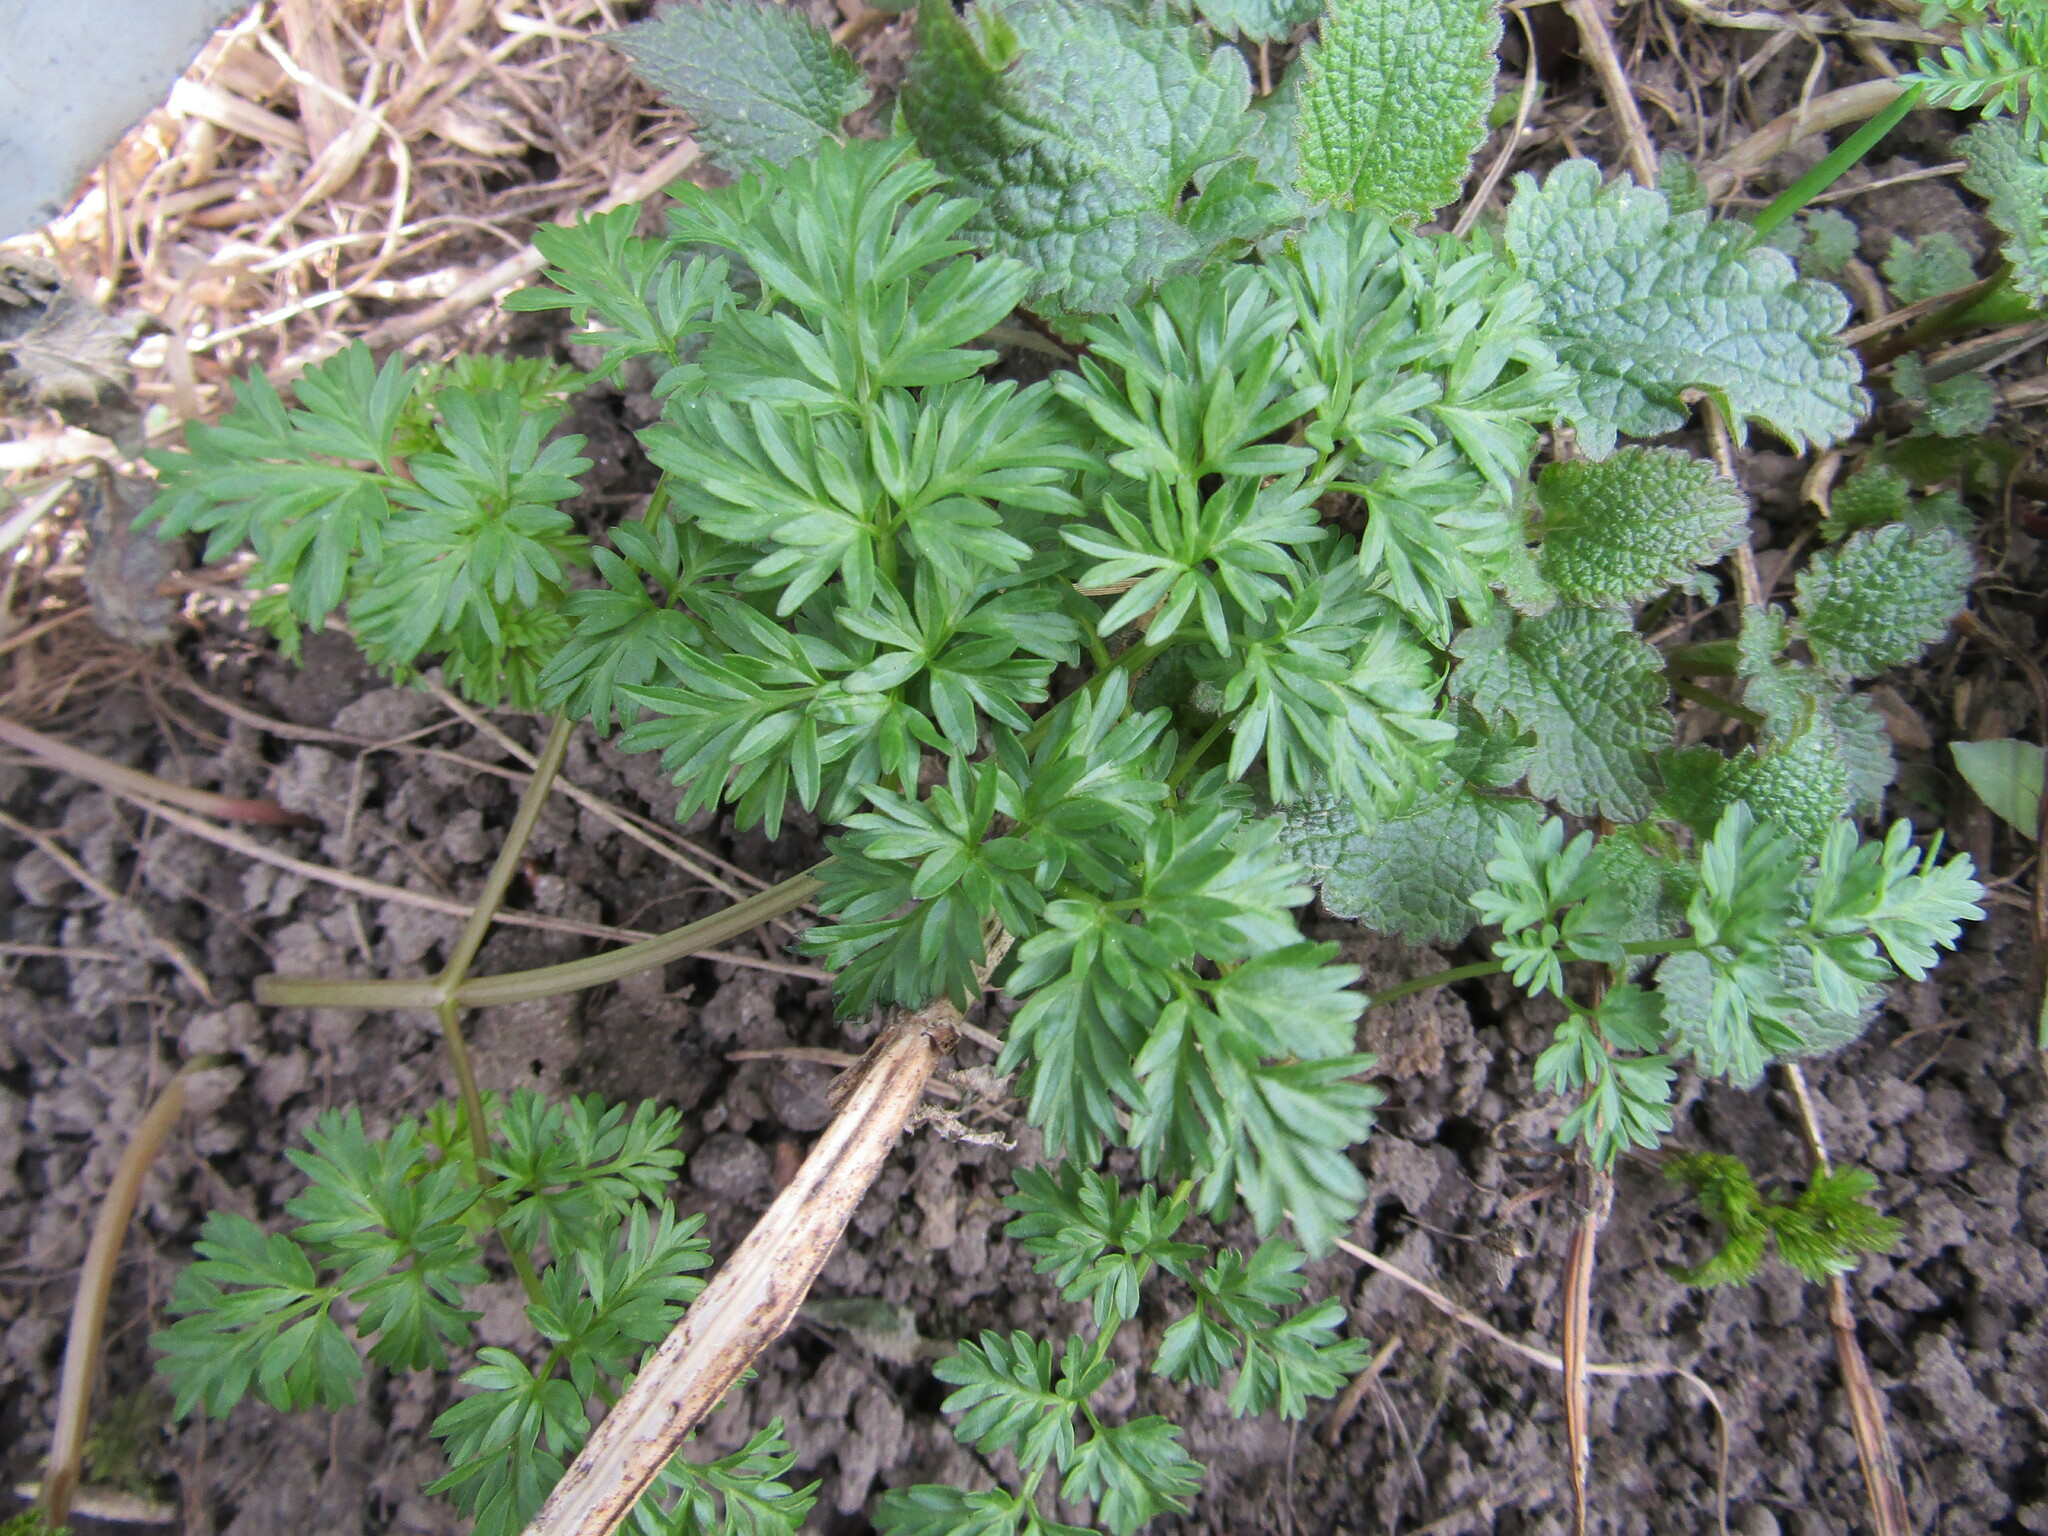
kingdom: Plantae
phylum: Tracheophyta
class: Magnoliopsida
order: Apiales
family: Apiaceae
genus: Anthriscus
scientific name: Anthriscus sylvestris
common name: Cow parsley
